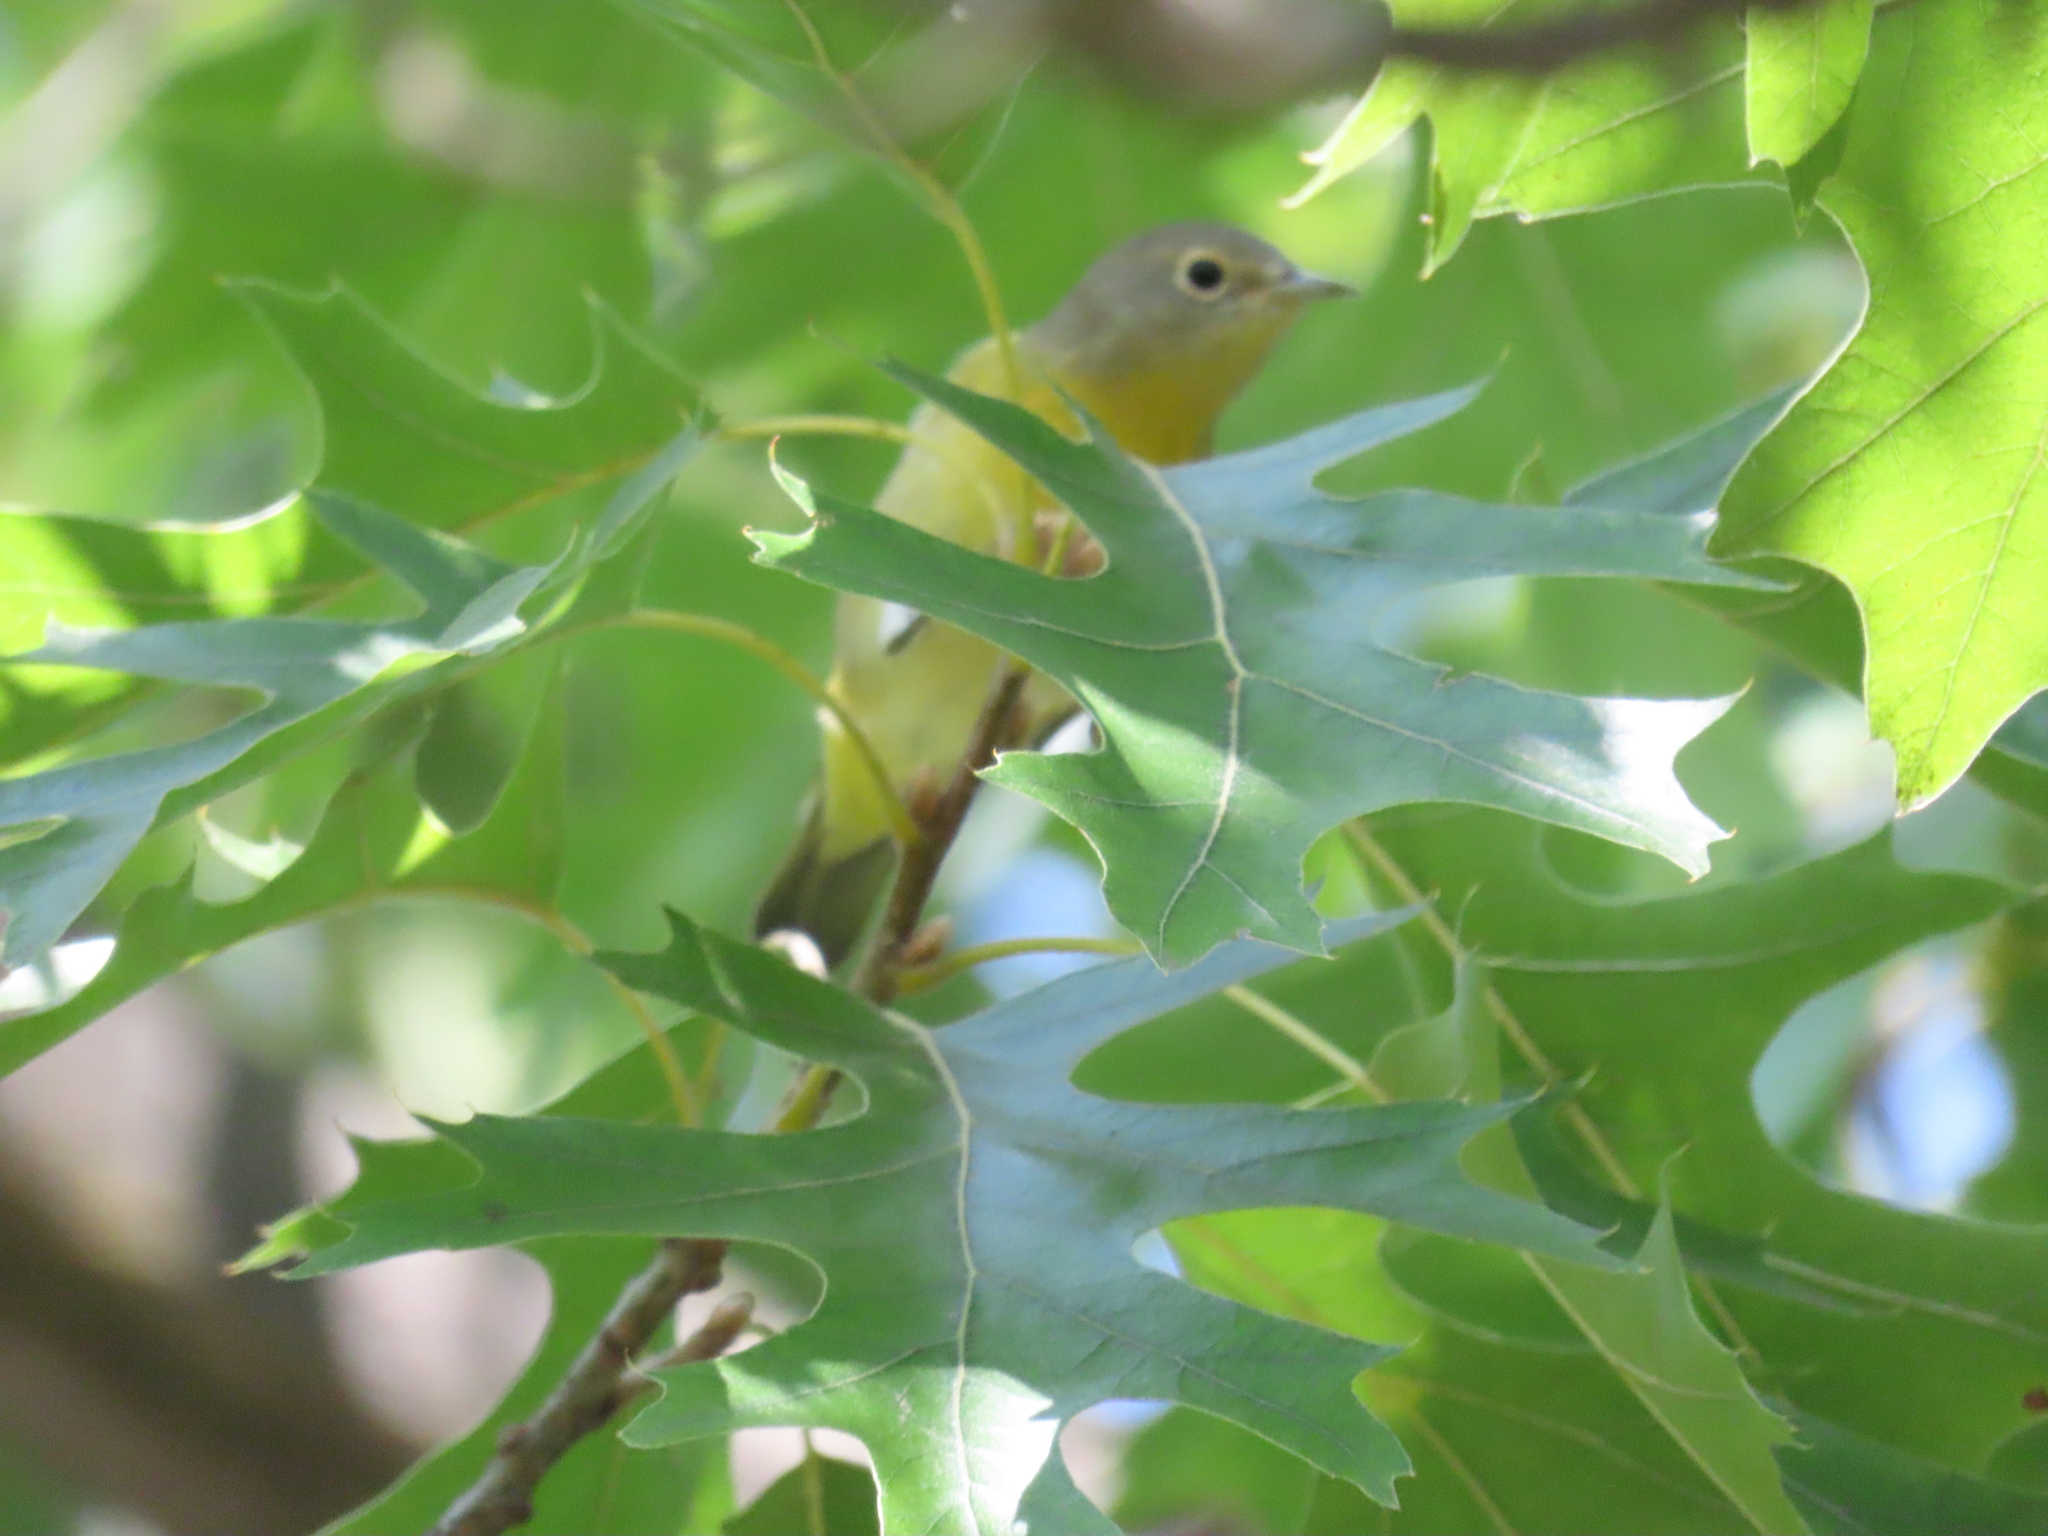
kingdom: Animalia
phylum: Chordata
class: Aves
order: Passeriformes
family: Parulidae
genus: Leiothlypis
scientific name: Leiothlypis ruficapilla
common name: Nashville warbler
